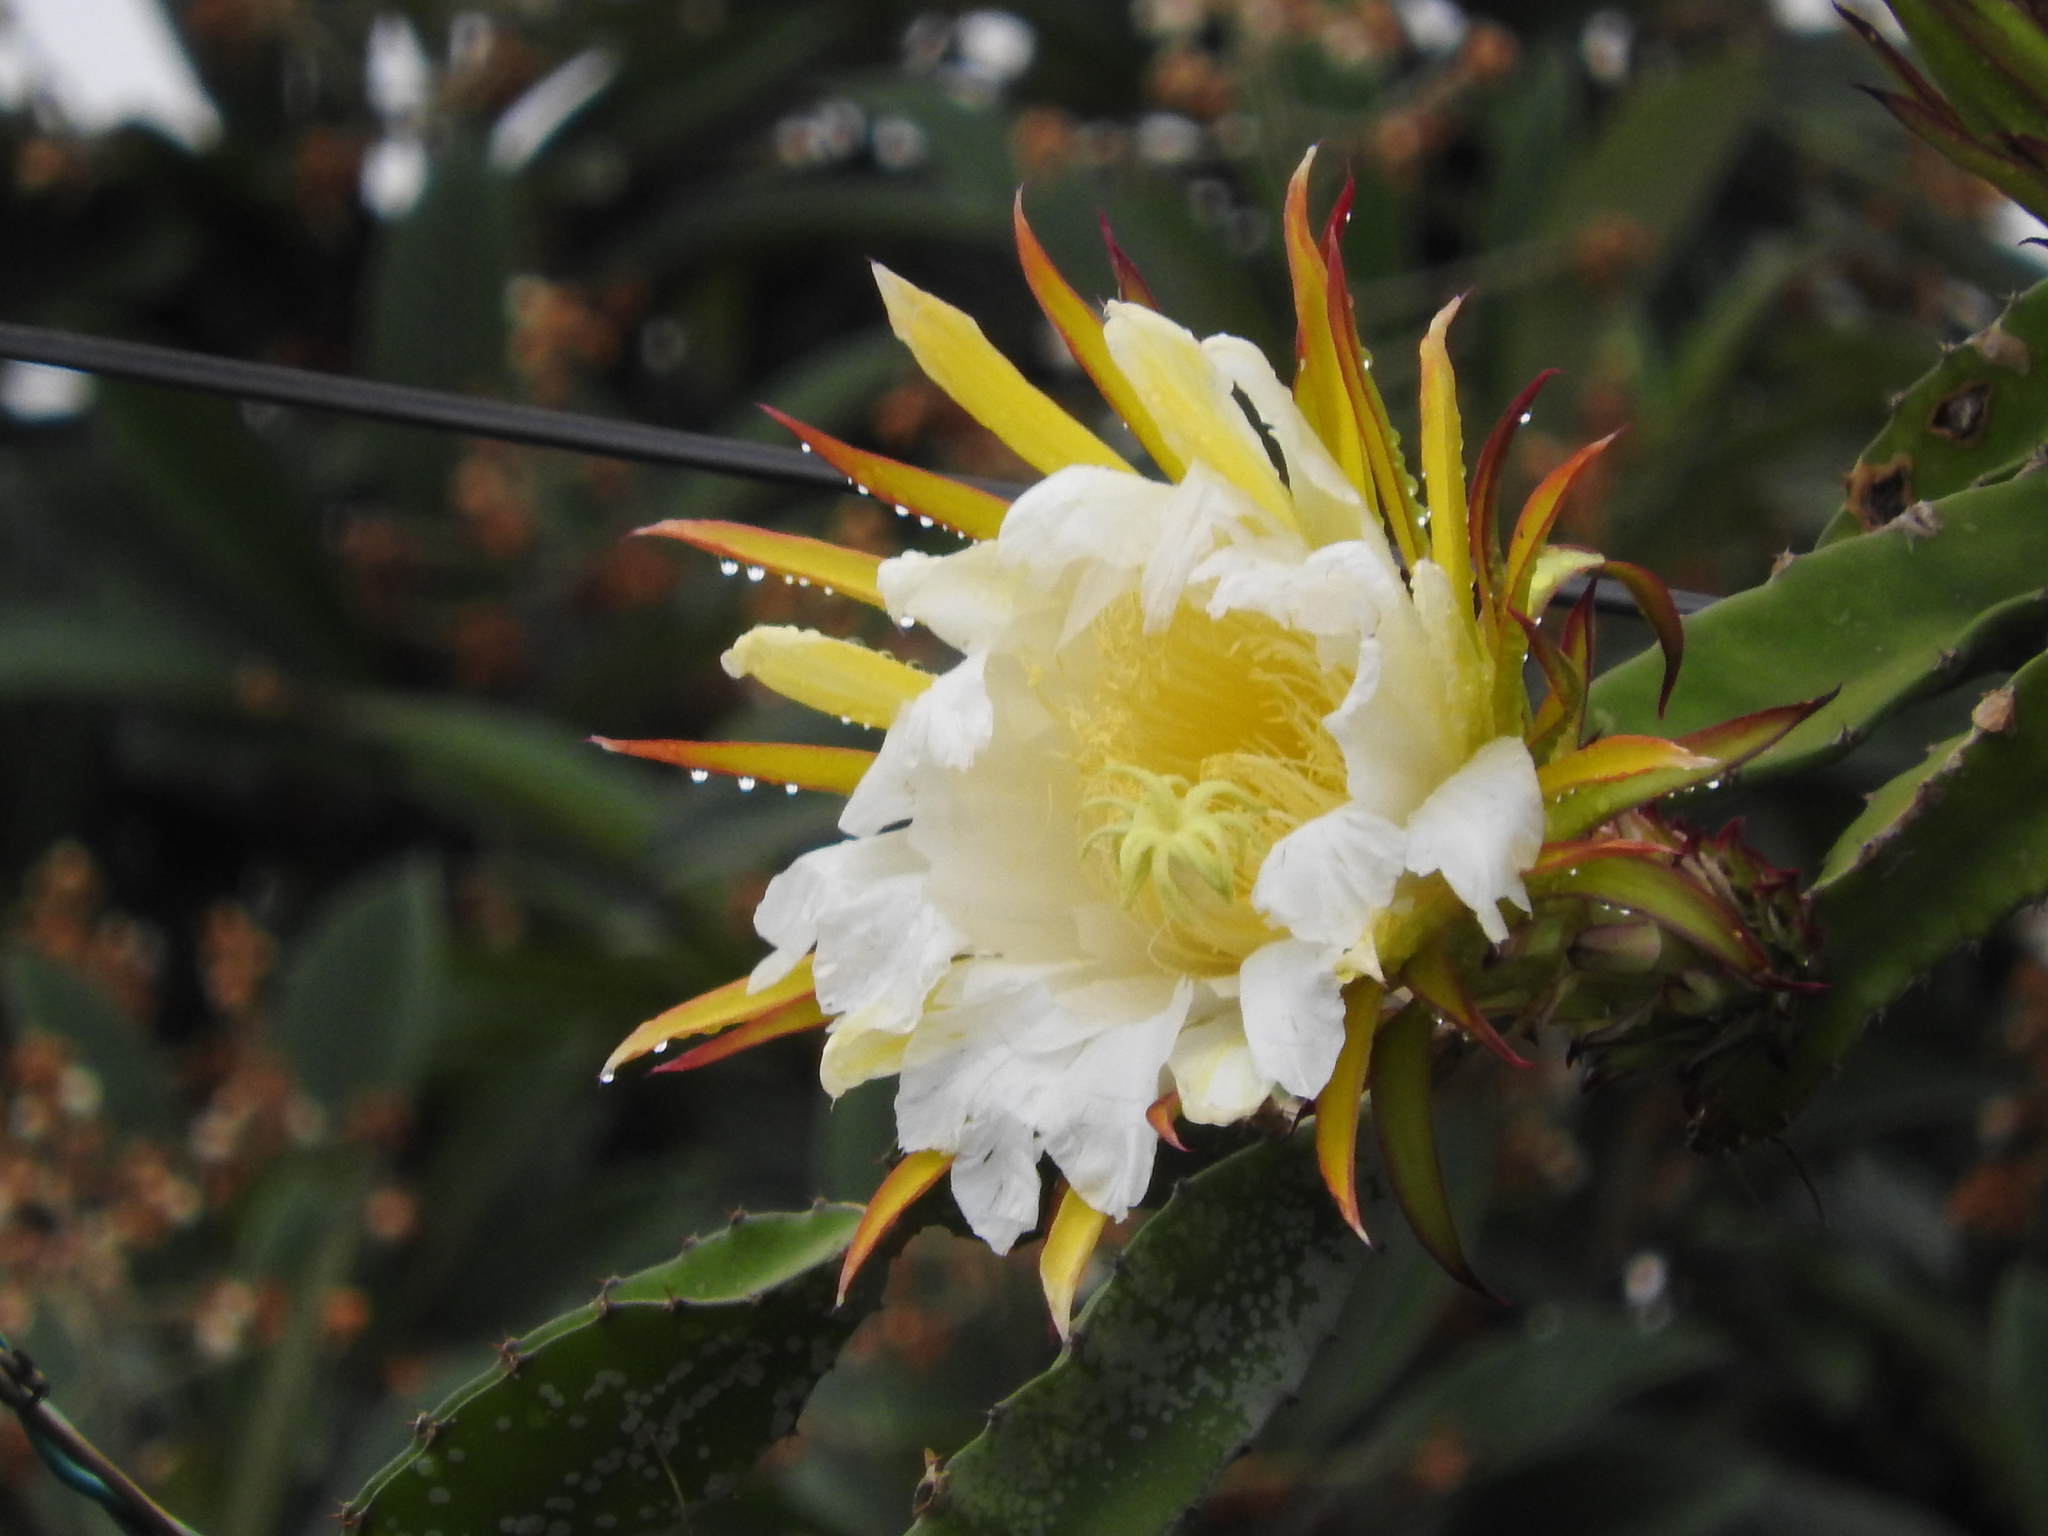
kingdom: Plantae
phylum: Tracheophyta
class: Magnoliopsida
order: Caryophyllales
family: Cactaceae
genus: Selenicereus
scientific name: Selenicereus ocamponis
